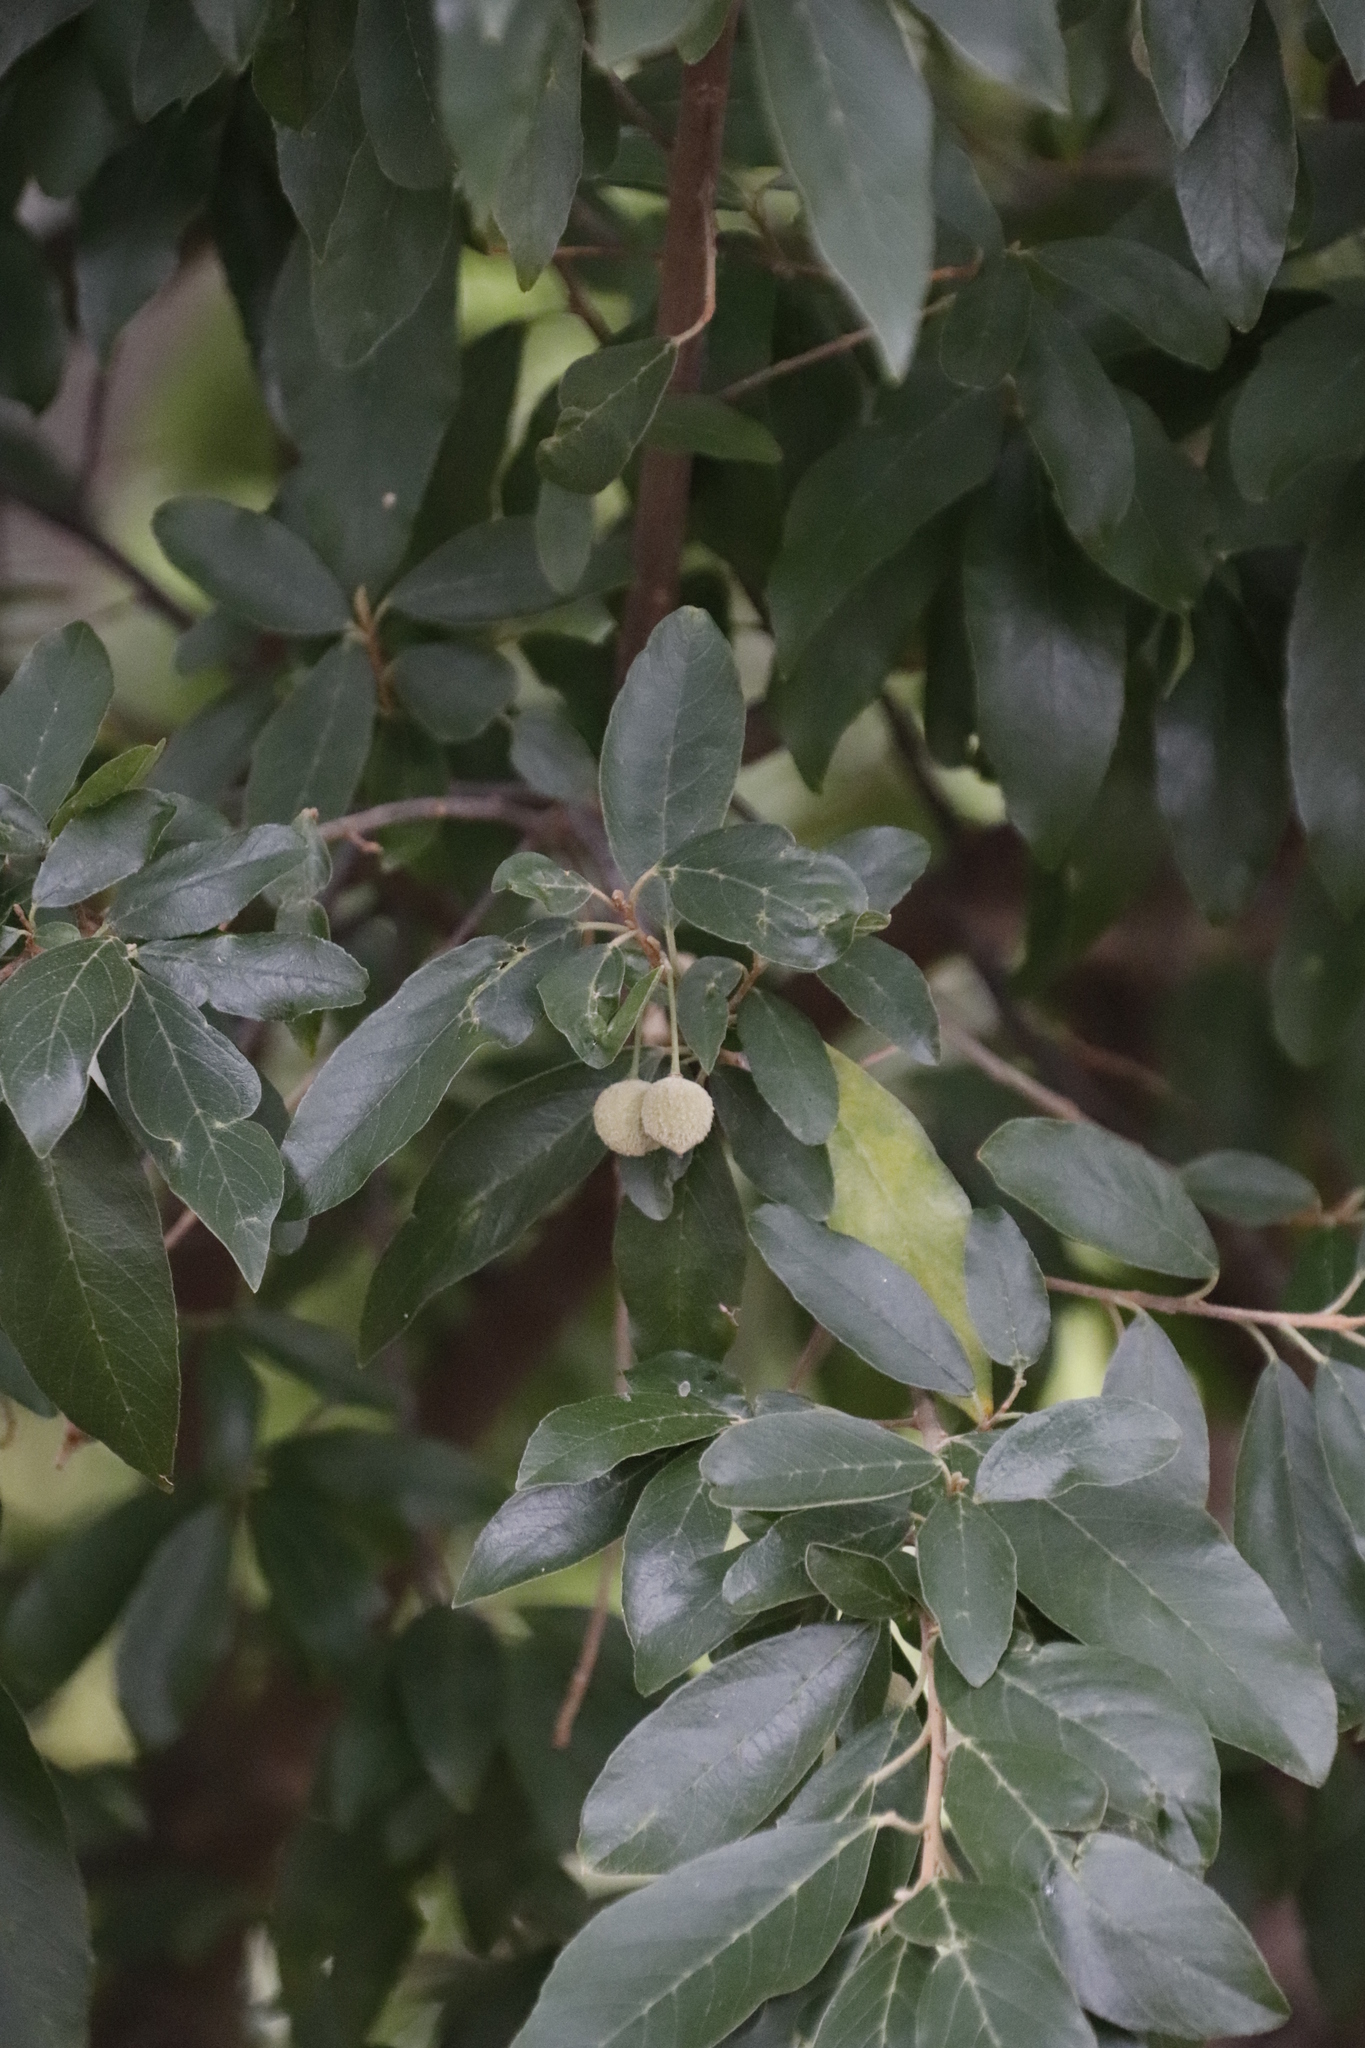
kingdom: Plantae
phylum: Tracheophyta
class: Magnoliopsida
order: Malpighiales
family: Achariaceae
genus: Kiggelaria
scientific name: Kiggelaria africana
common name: Wild peach
